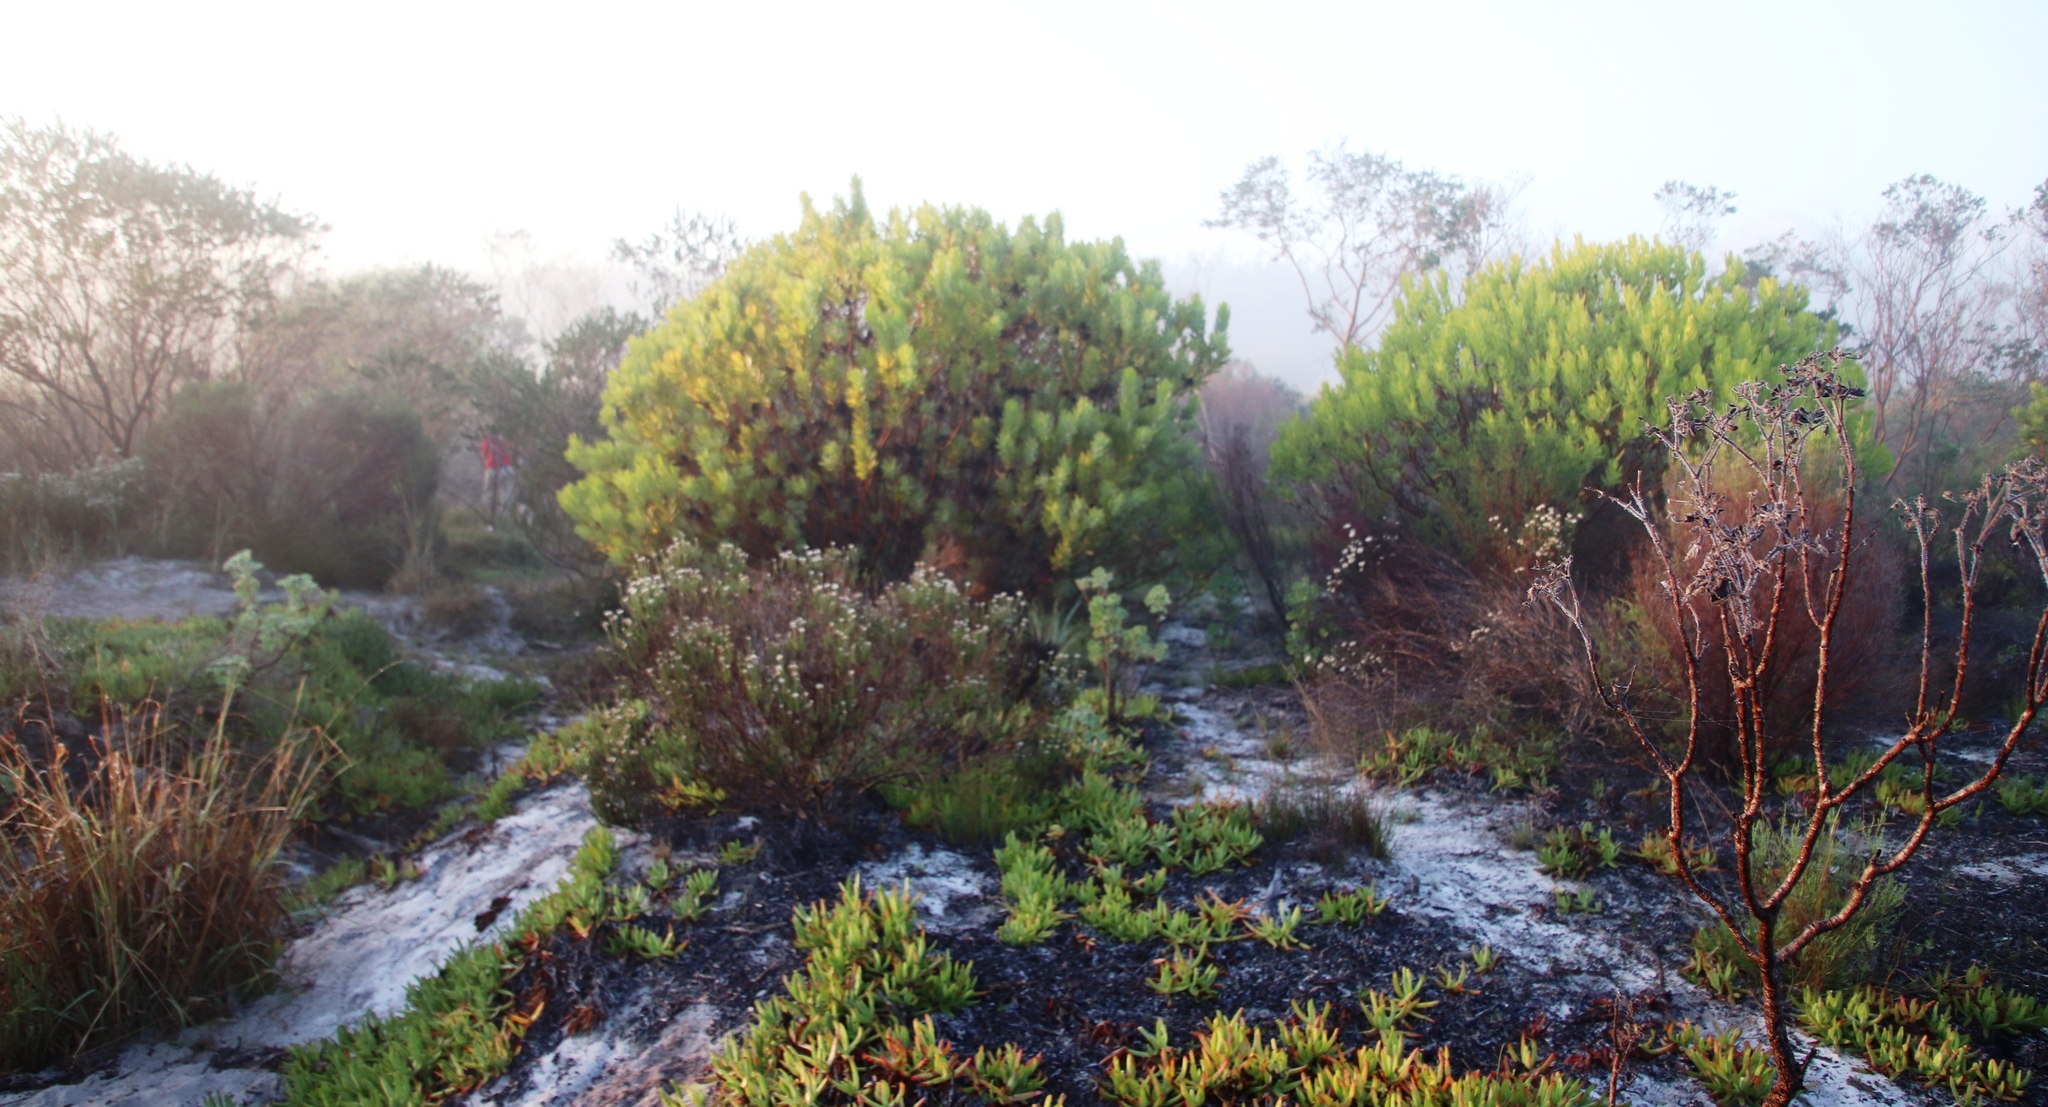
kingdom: Plantae
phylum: Tracheophyta
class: Magnoliopsida
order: Proteales
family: Proteaceae
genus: Leucadendron
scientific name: Leucadendron laureolum
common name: Golden sunshinebush
